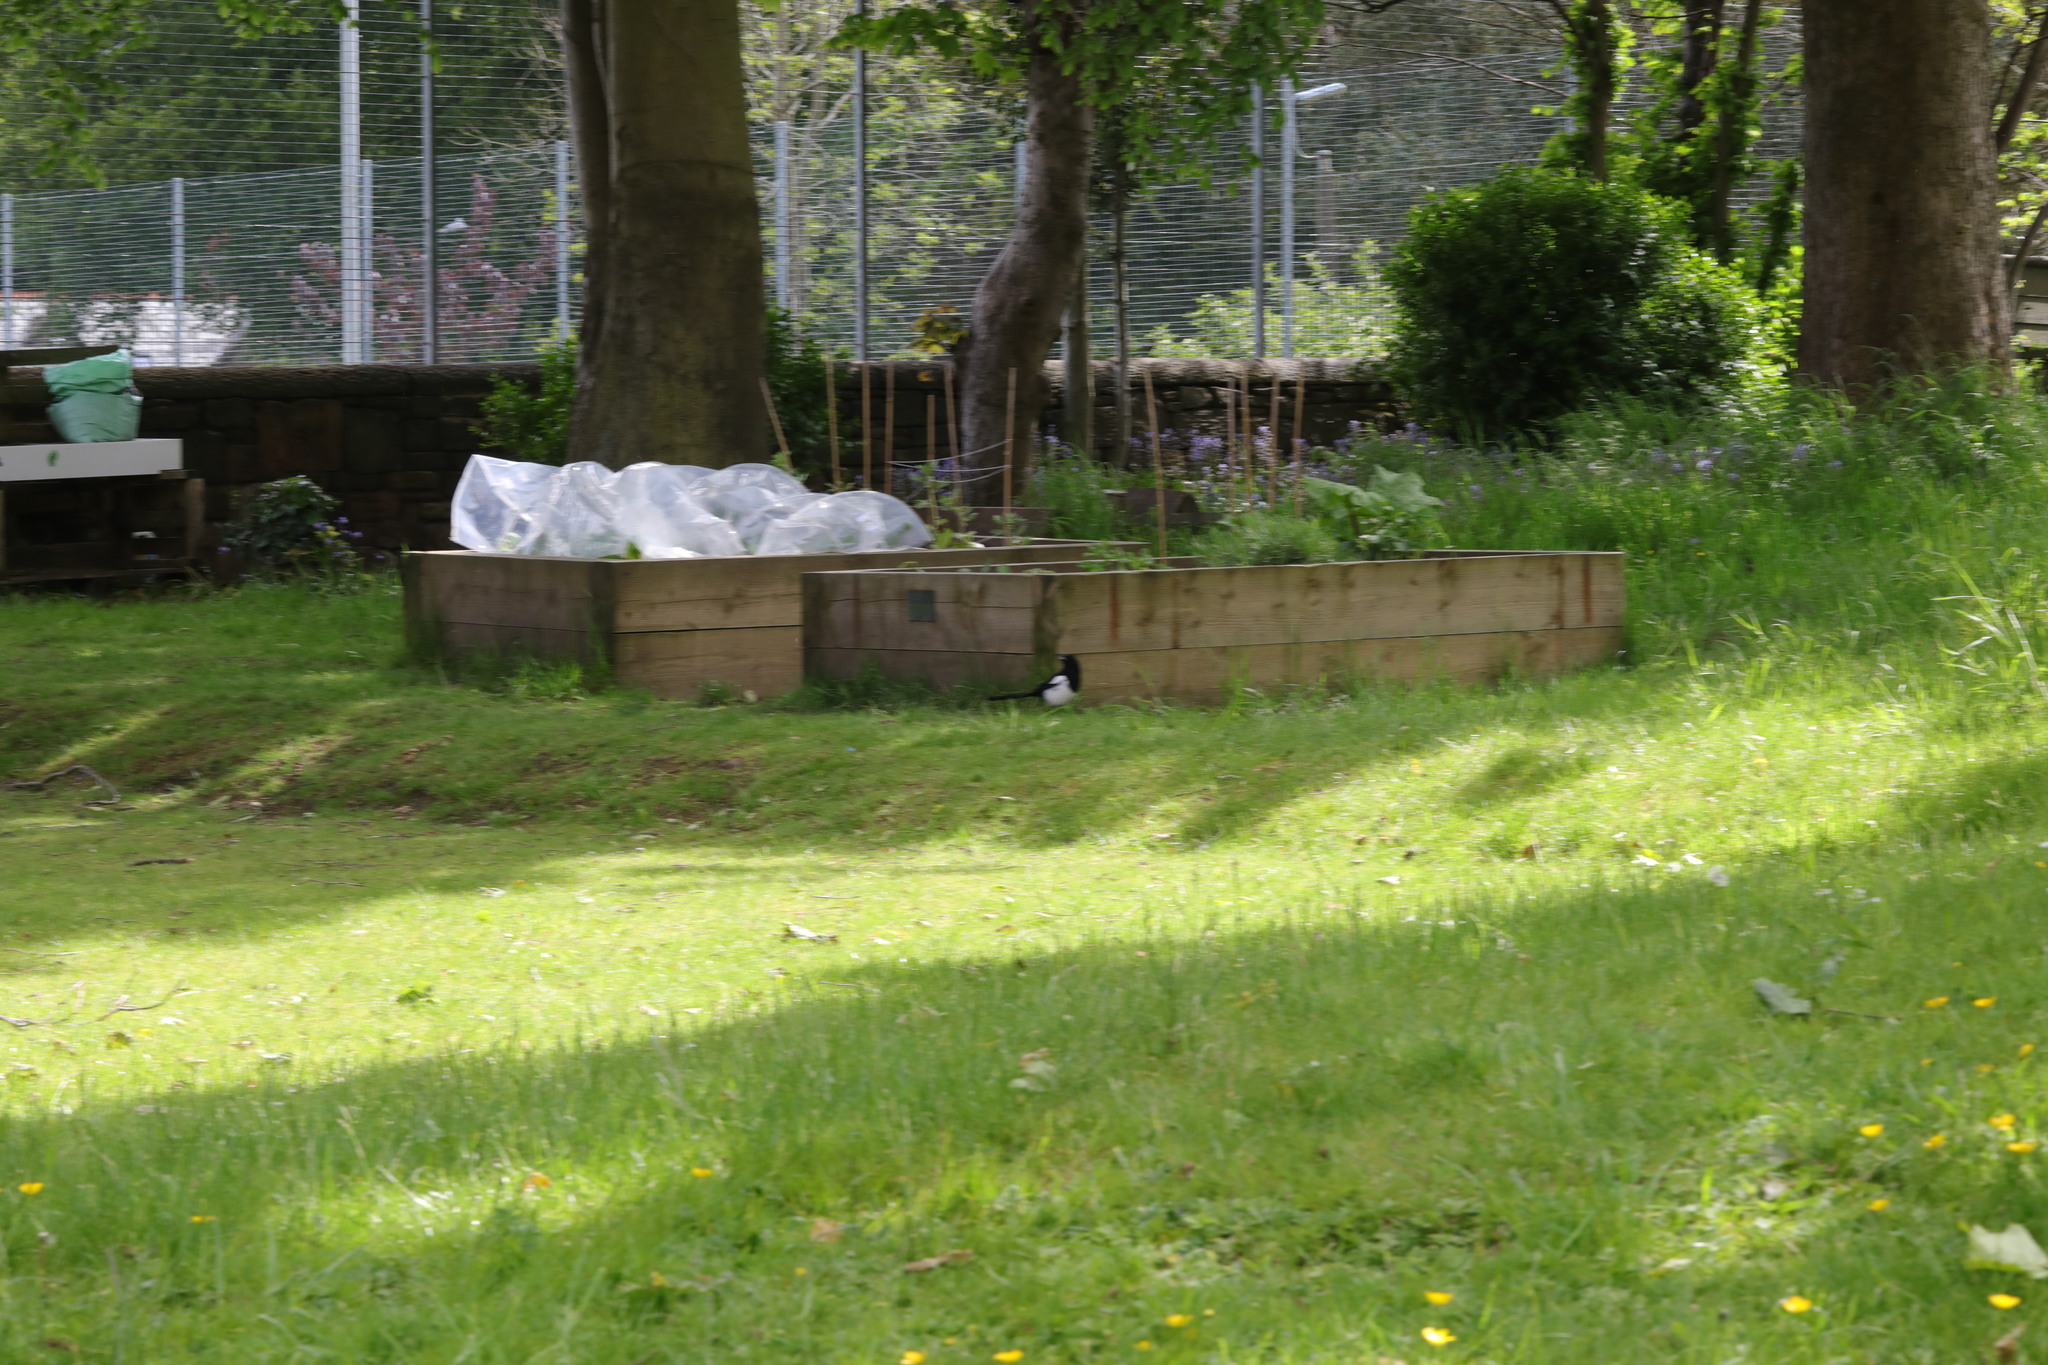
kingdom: Animalia
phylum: Chordata
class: Aves
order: Passeriformes
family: Corvidae
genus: Pica
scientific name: Pica pica
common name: Eurasian magpie
